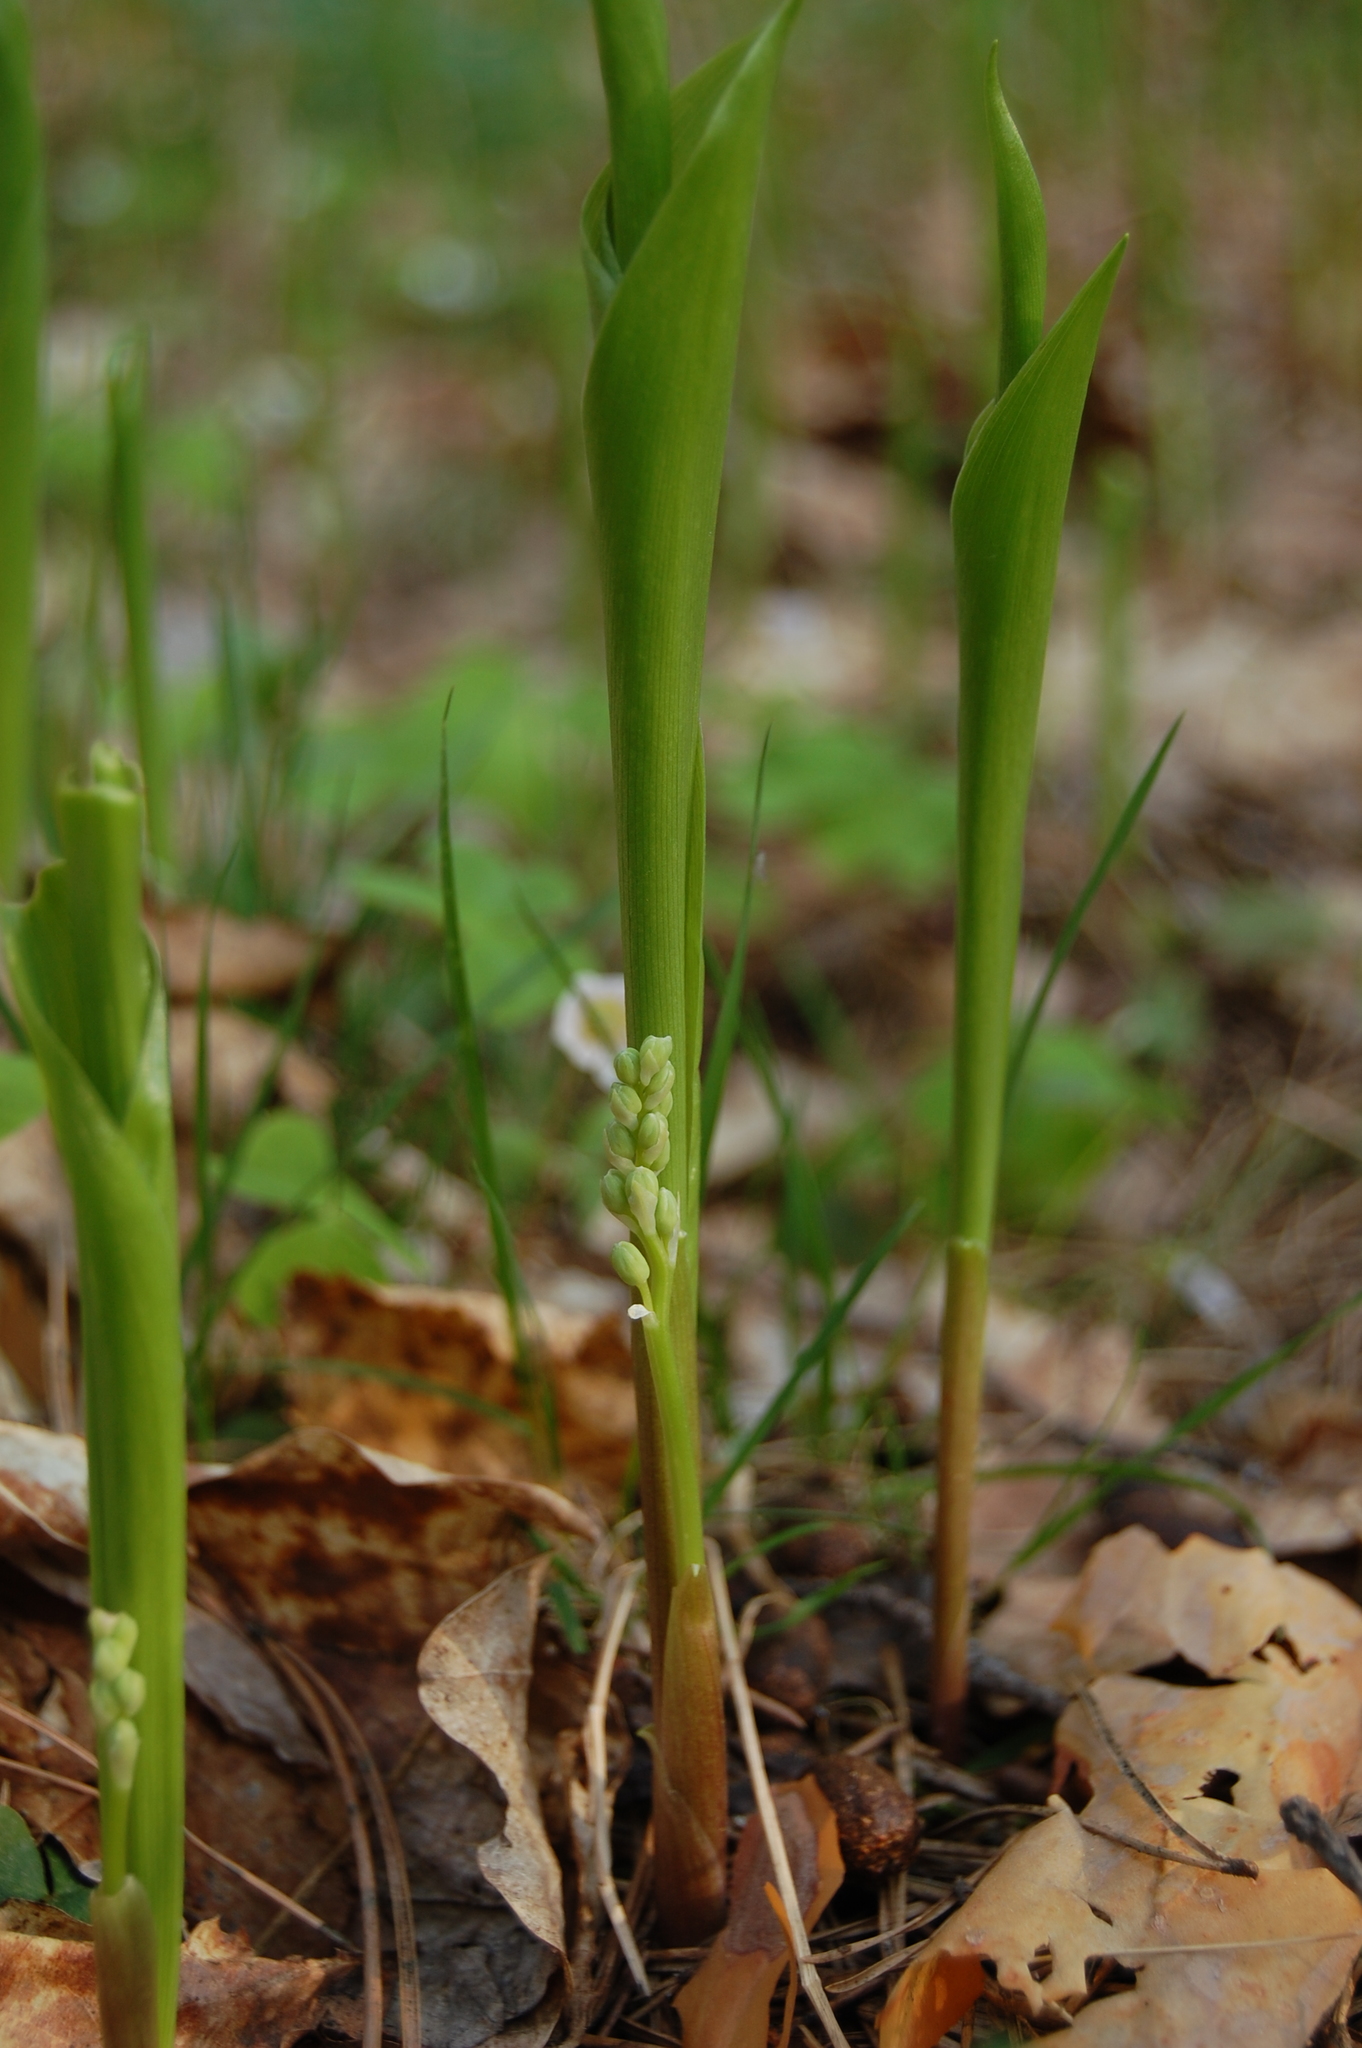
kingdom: Plantae
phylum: Tracheophyta
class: Liliopsida
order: Asparagales
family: Asparagaceae
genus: Convallaria
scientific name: Convallaria majalis
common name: Lily-of-the-valley
